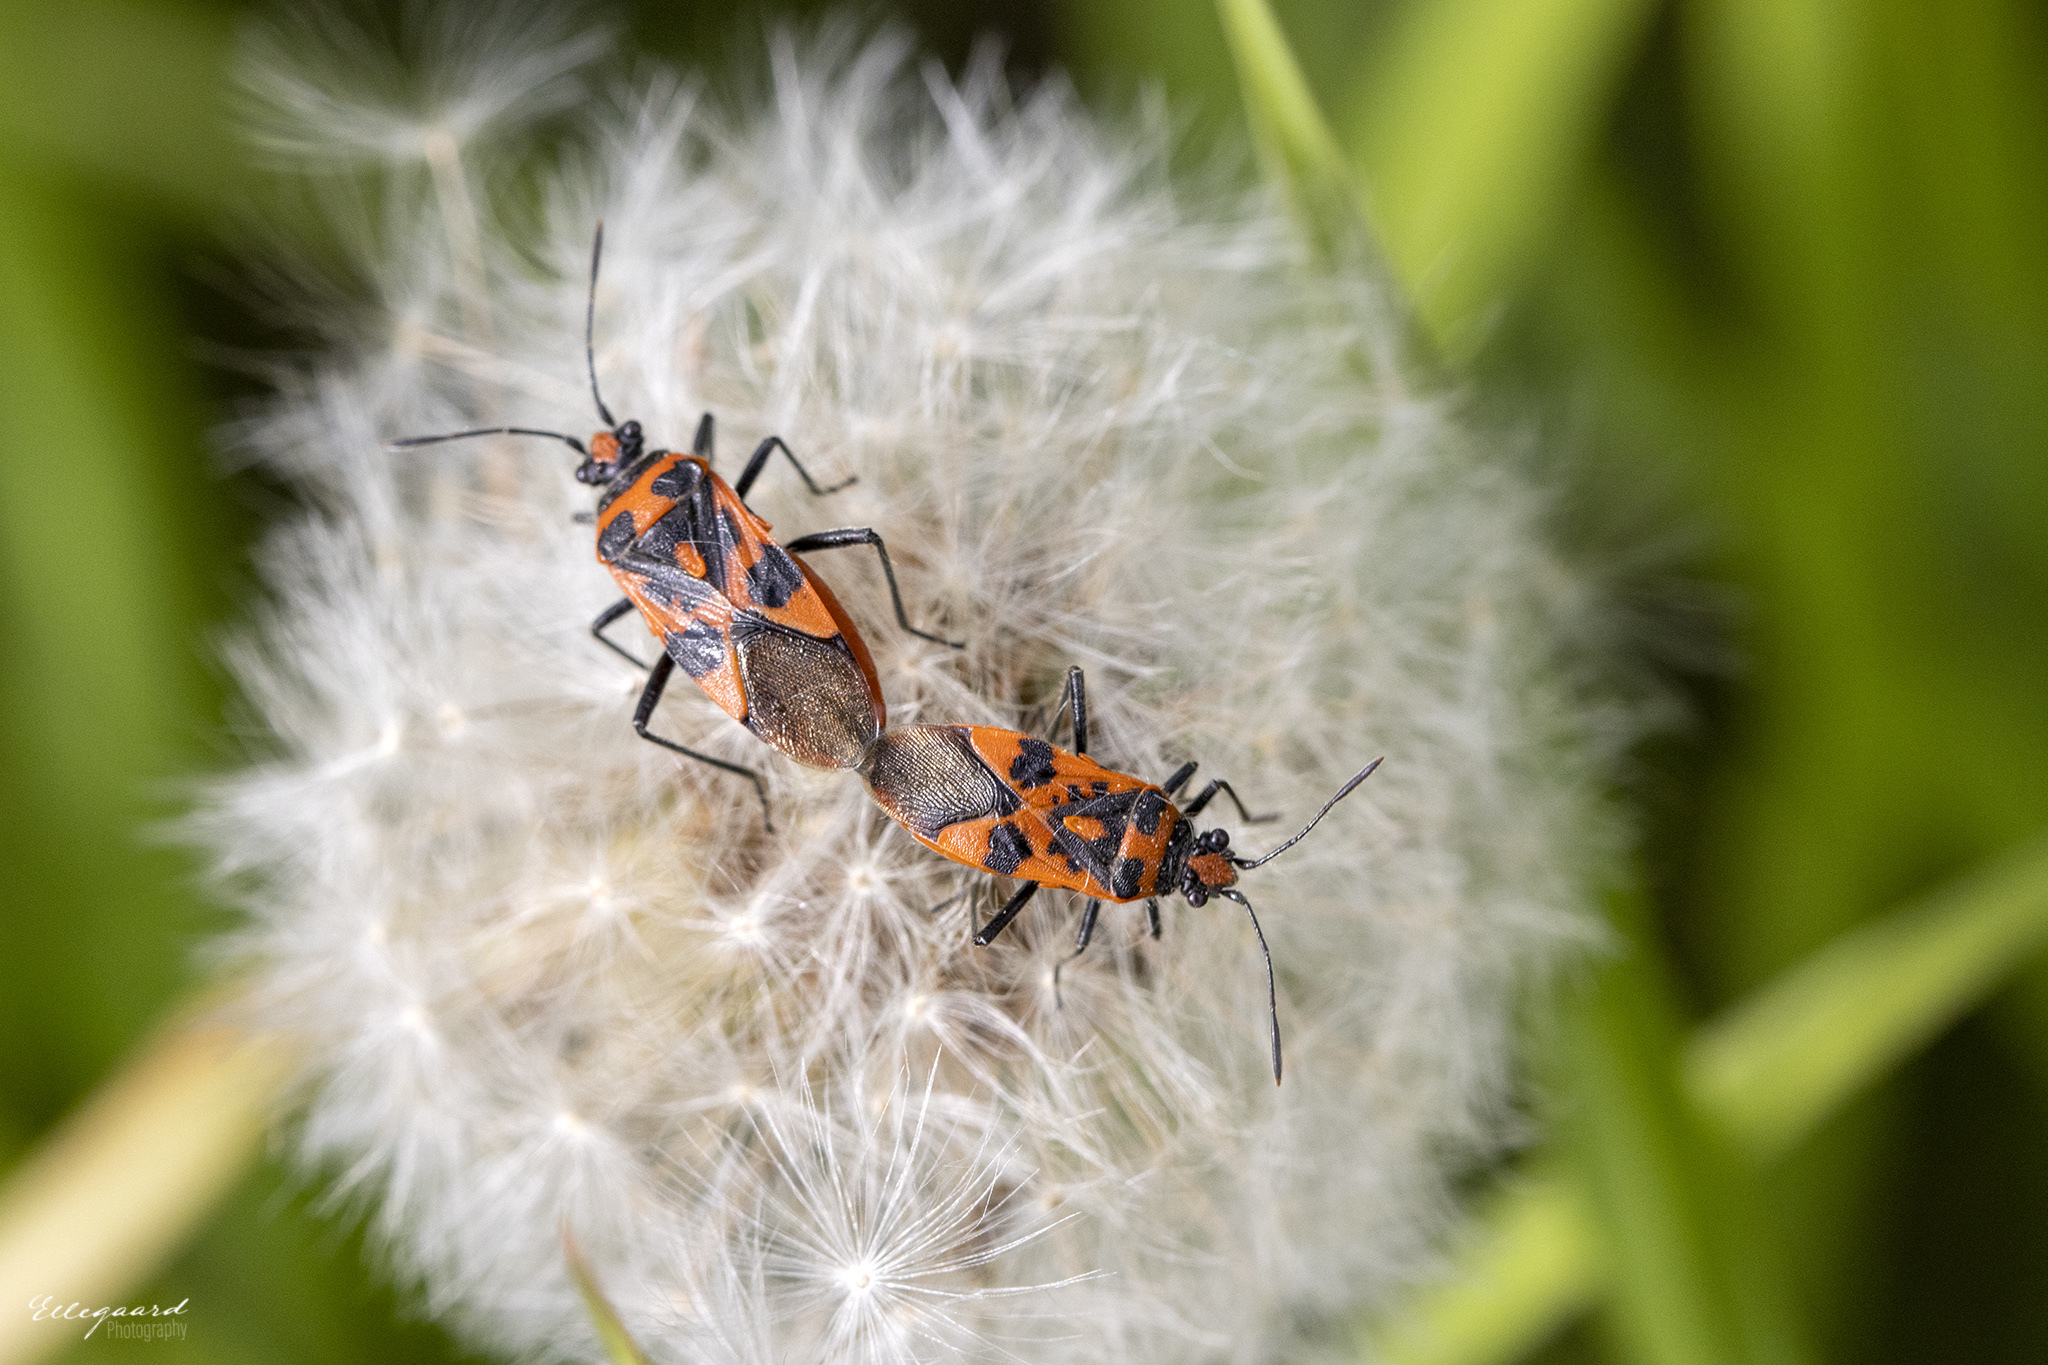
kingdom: Animalia
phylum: Arthropoda
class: Insecta
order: Hemiptera
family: Rhopalidae
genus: Corizus
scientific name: Corizus hyoscyami
